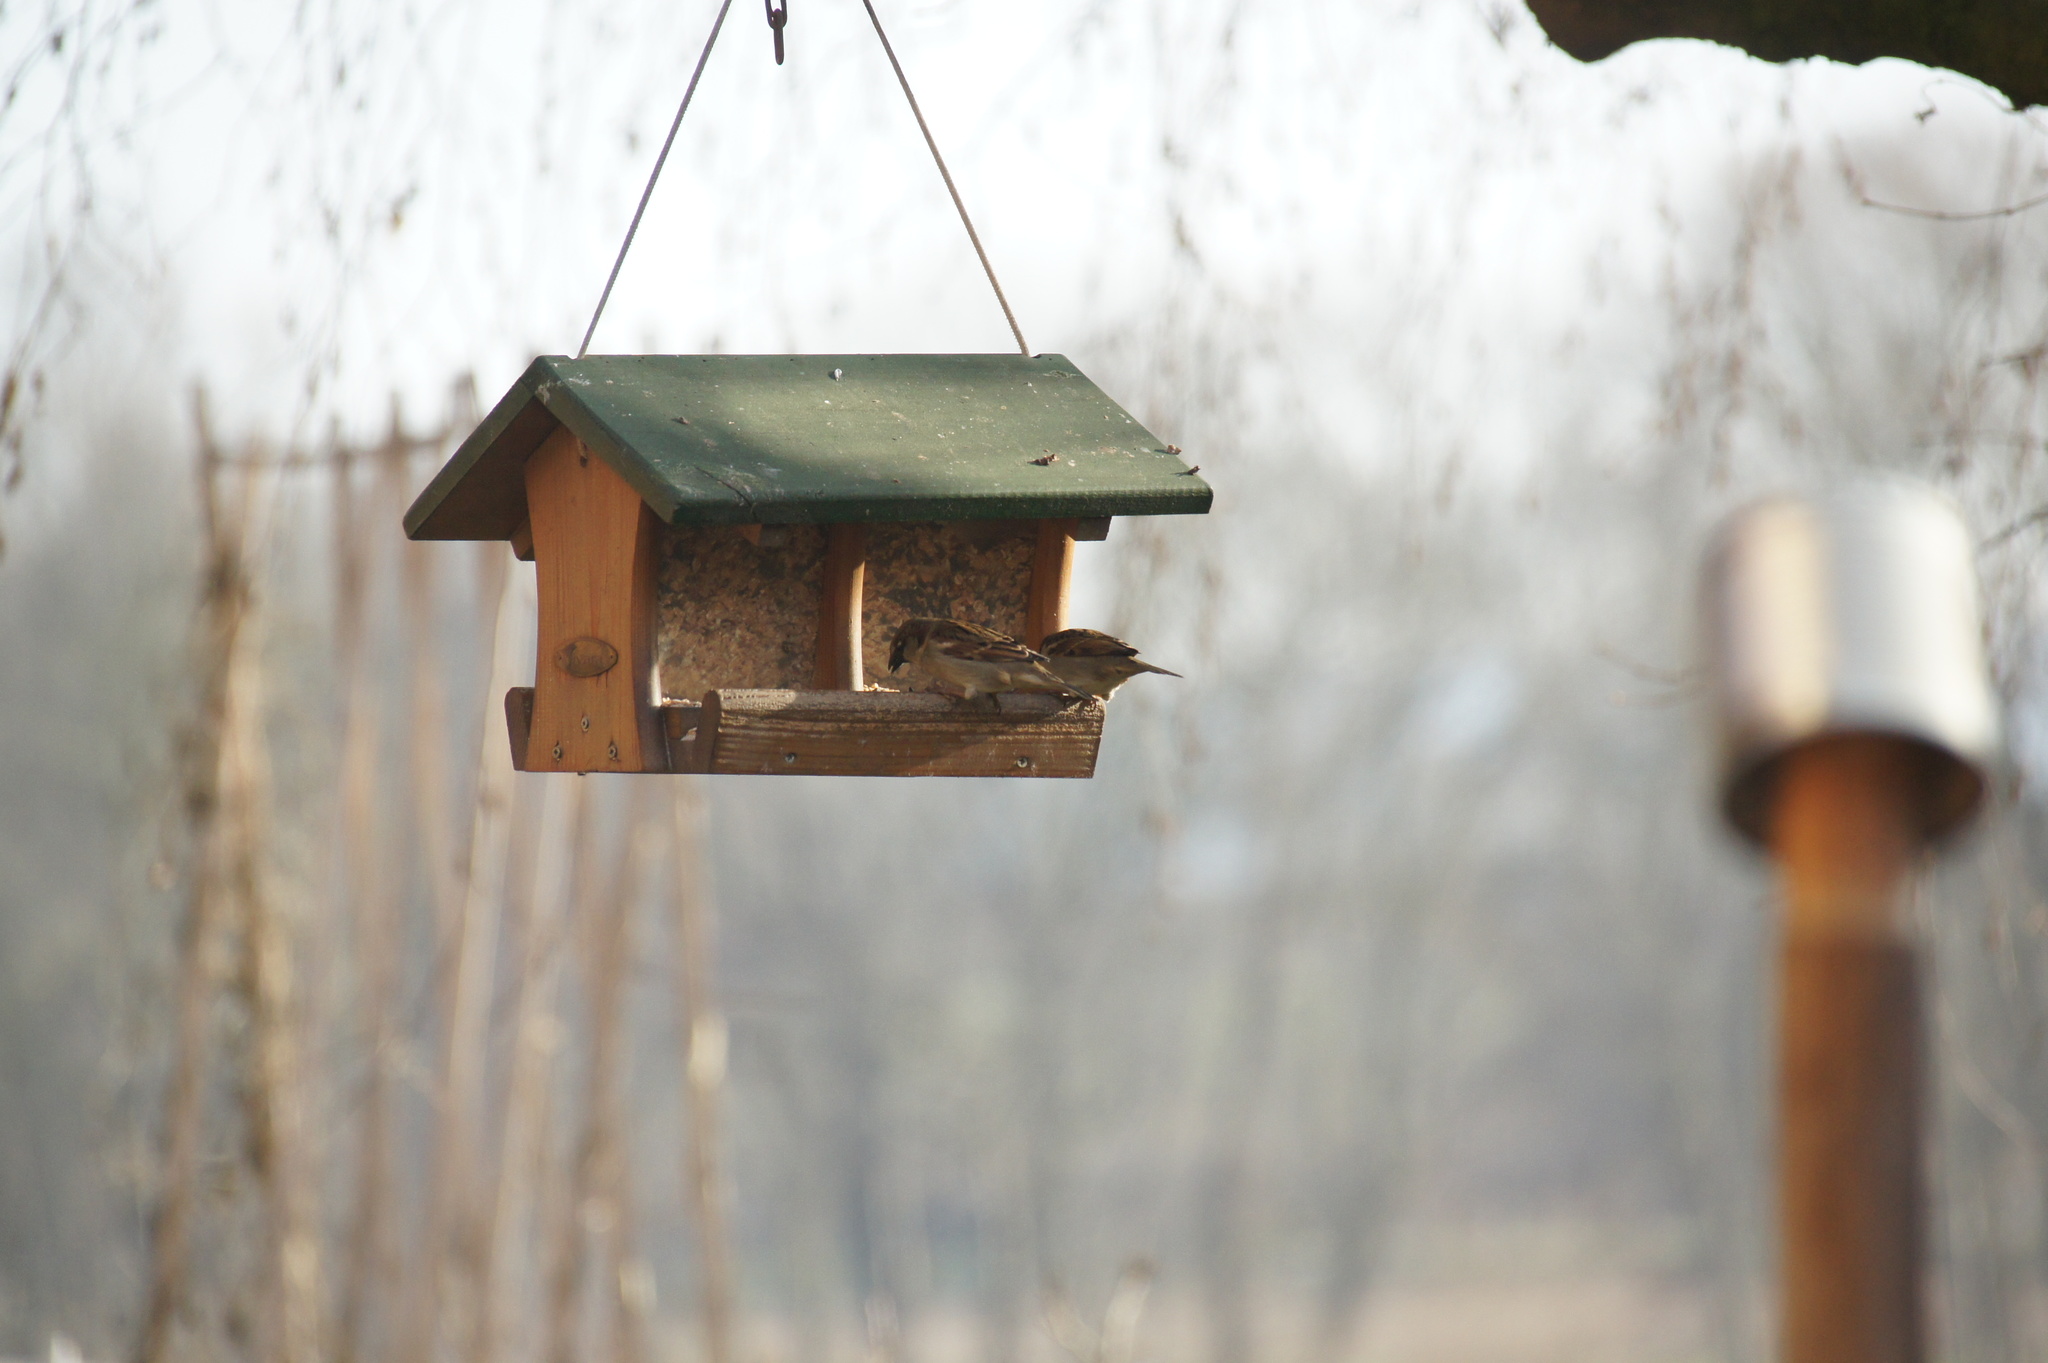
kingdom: Animalia
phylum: Chordata
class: Aves
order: Passeriformes
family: Passeridae
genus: Passer
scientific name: Passer domesticus
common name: House sparrow
